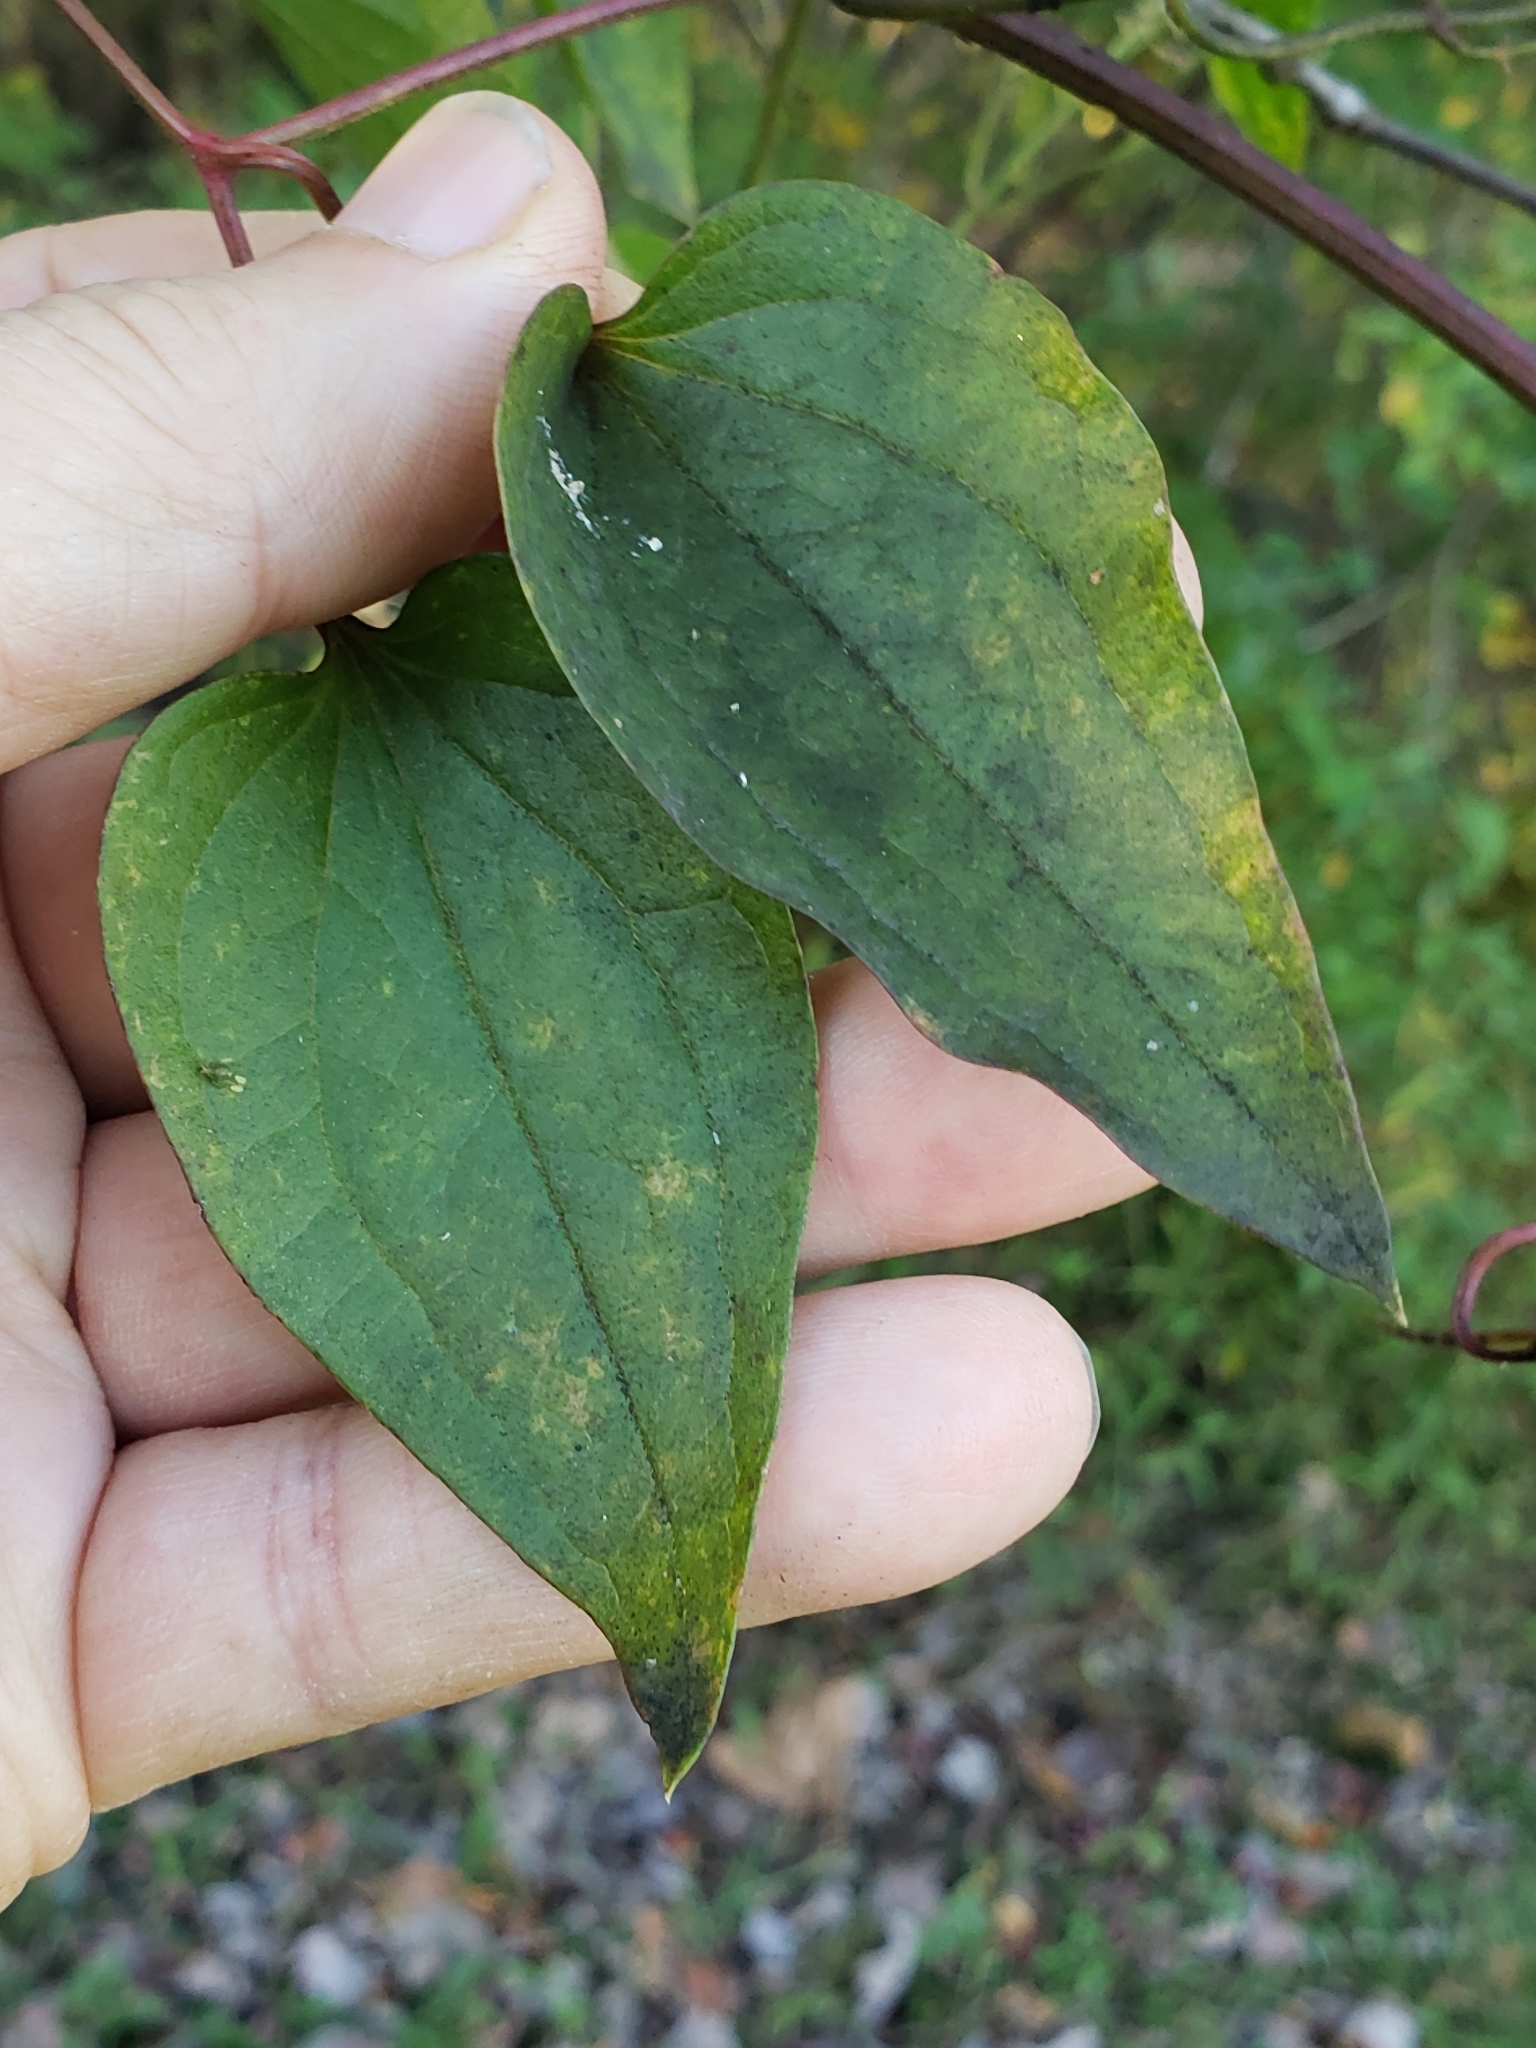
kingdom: Plantae
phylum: Tracheophyta
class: Magnoliopsida
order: Ranunculales
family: Ranunculaceae
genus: Clematis
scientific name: Clematis terniflora
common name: Sweet autumn clematis
